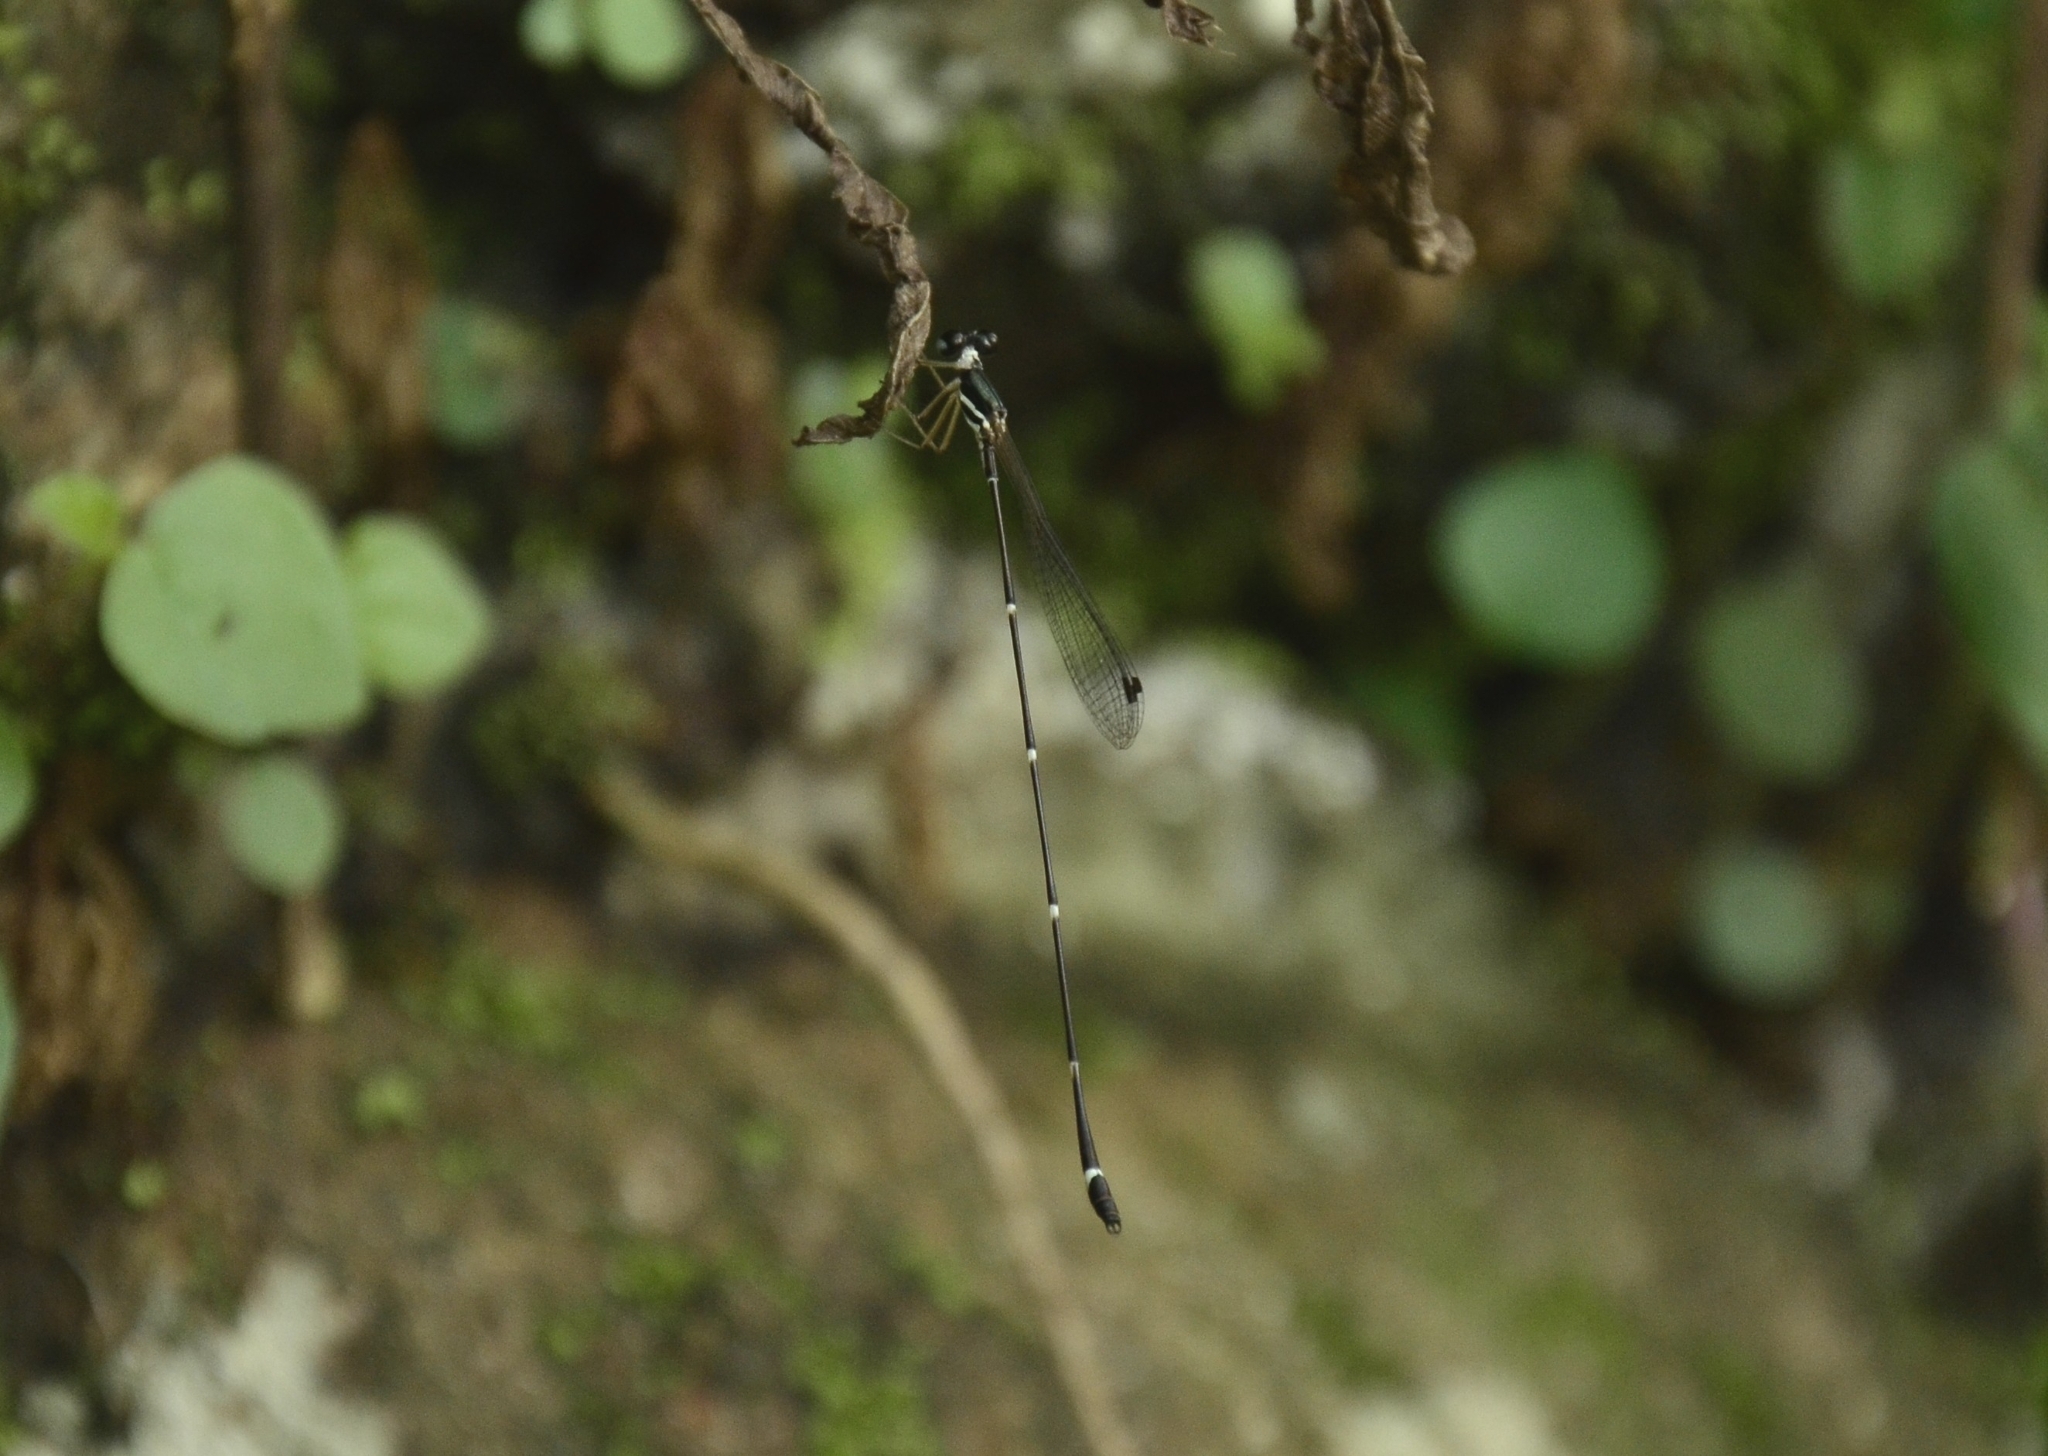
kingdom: Animalia
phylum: Arthropoda
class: Insecta
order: Odonata
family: Platystictidae
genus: Protosticta
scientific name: Protosticta gravelyi
